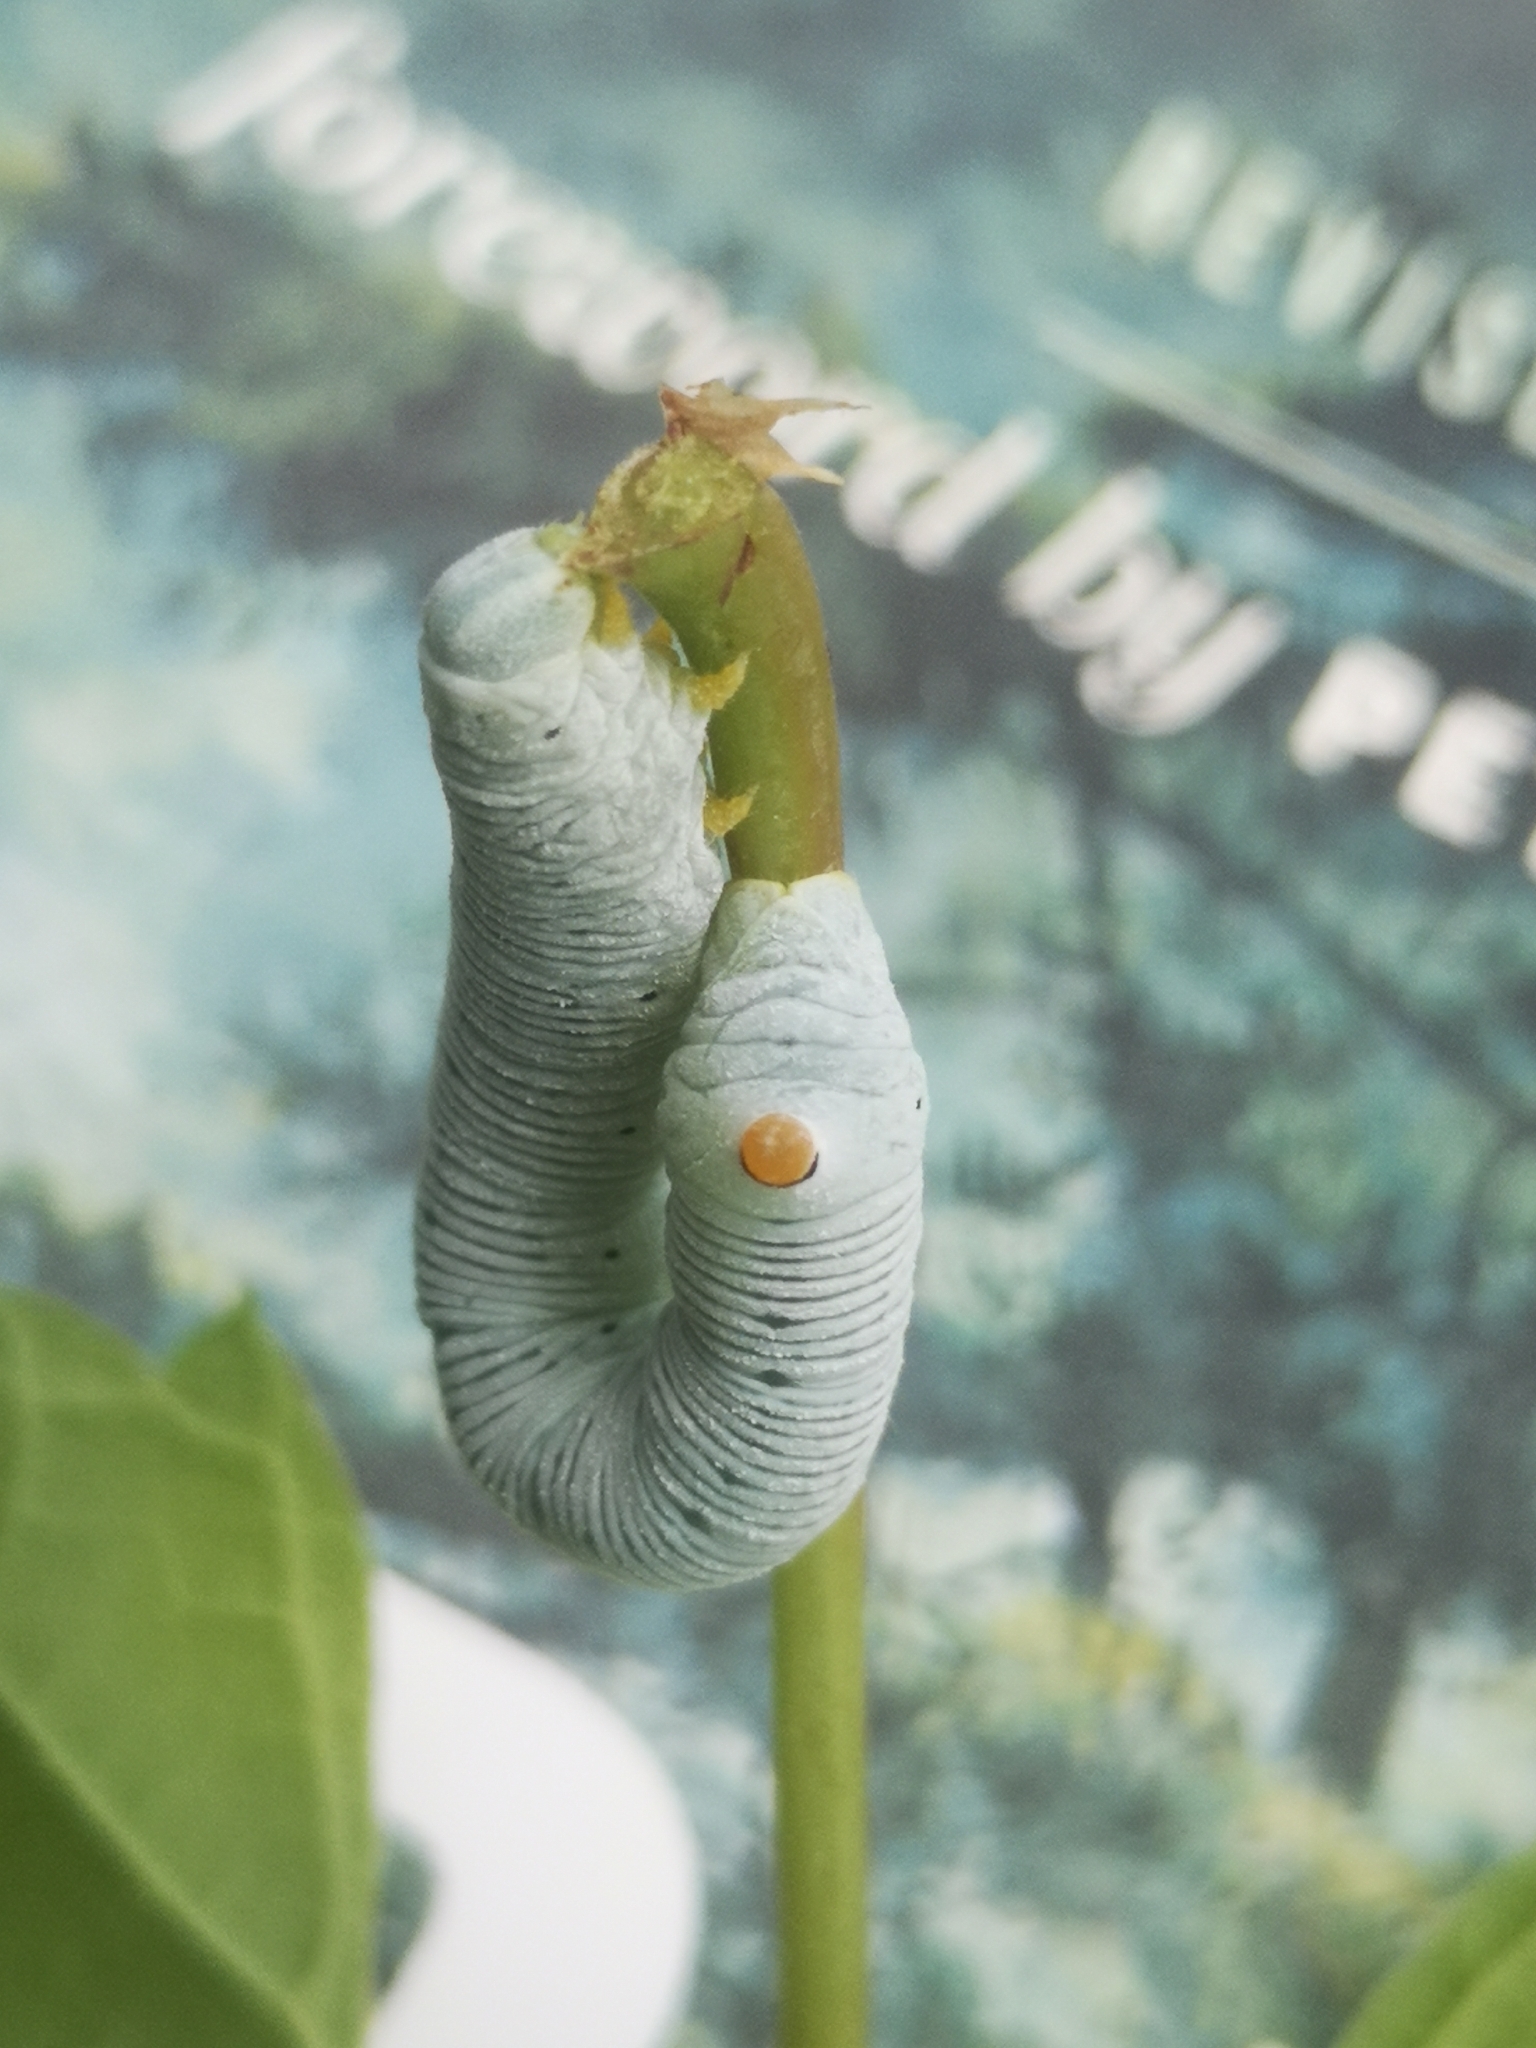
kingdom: Animalia
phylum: Arthropoda
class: Insecta
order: Lepidoptera
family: Sphingidae
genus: Sphecodina
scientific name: Sphecodina abbottii
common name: Abbott's sphinx
